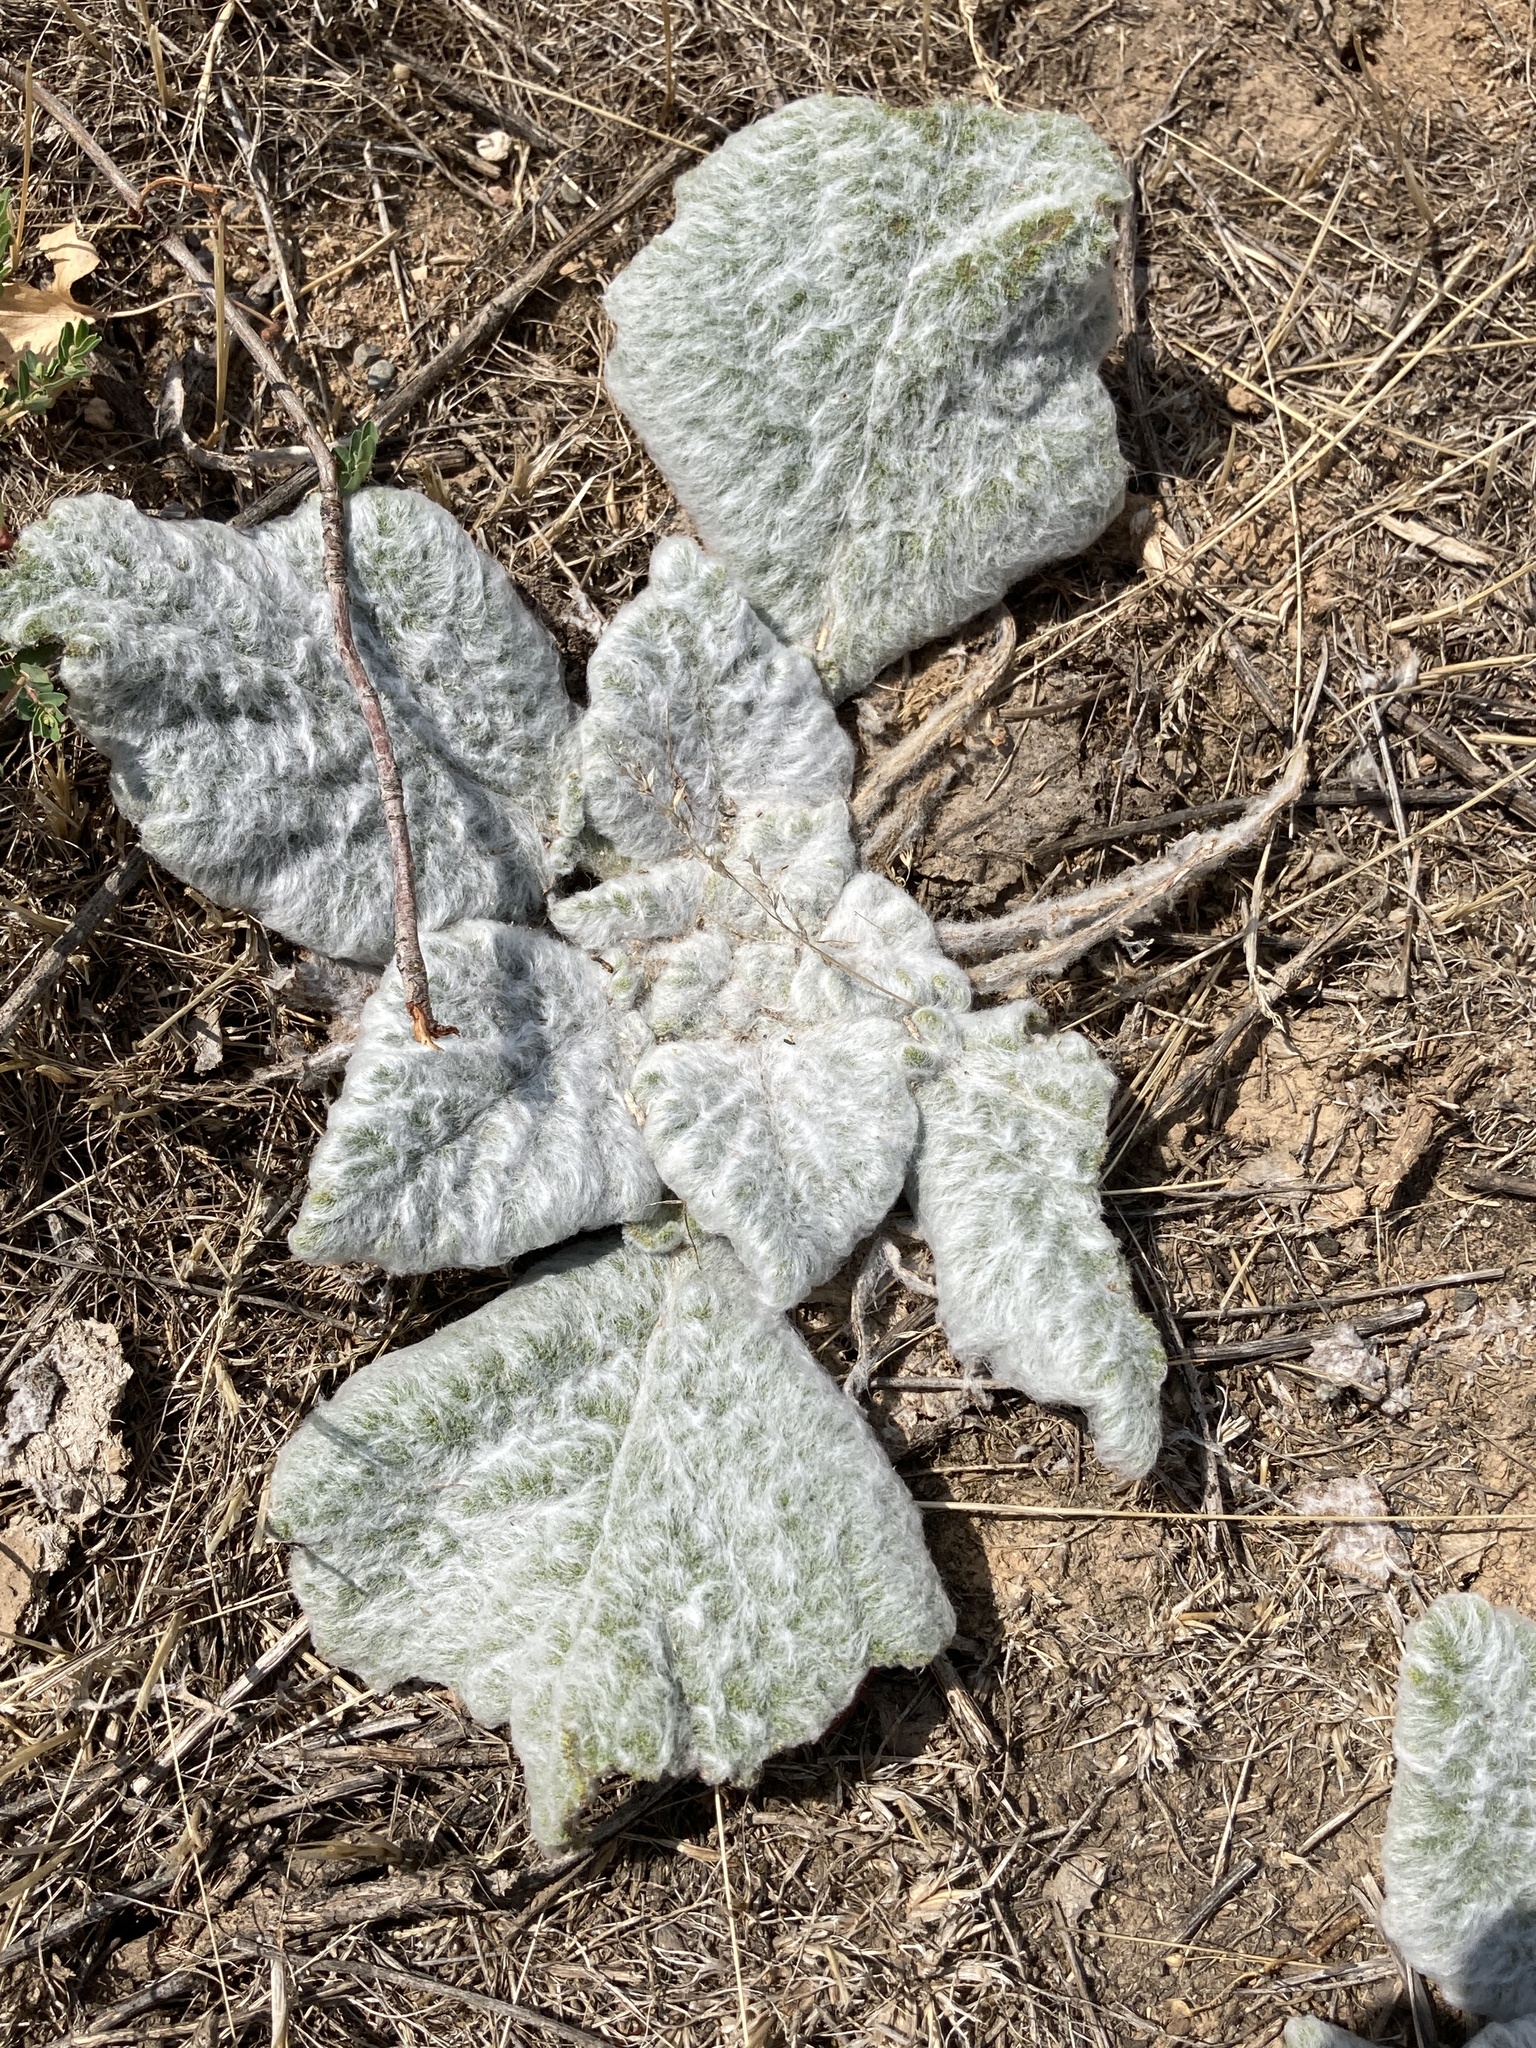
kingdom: Plantae
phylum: Tracheophyta
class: Magnoliopsida
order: Lamiales
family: Lamiaceae
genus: Salvia
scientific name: Salvia aethiopis
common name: Mediterranean sage
